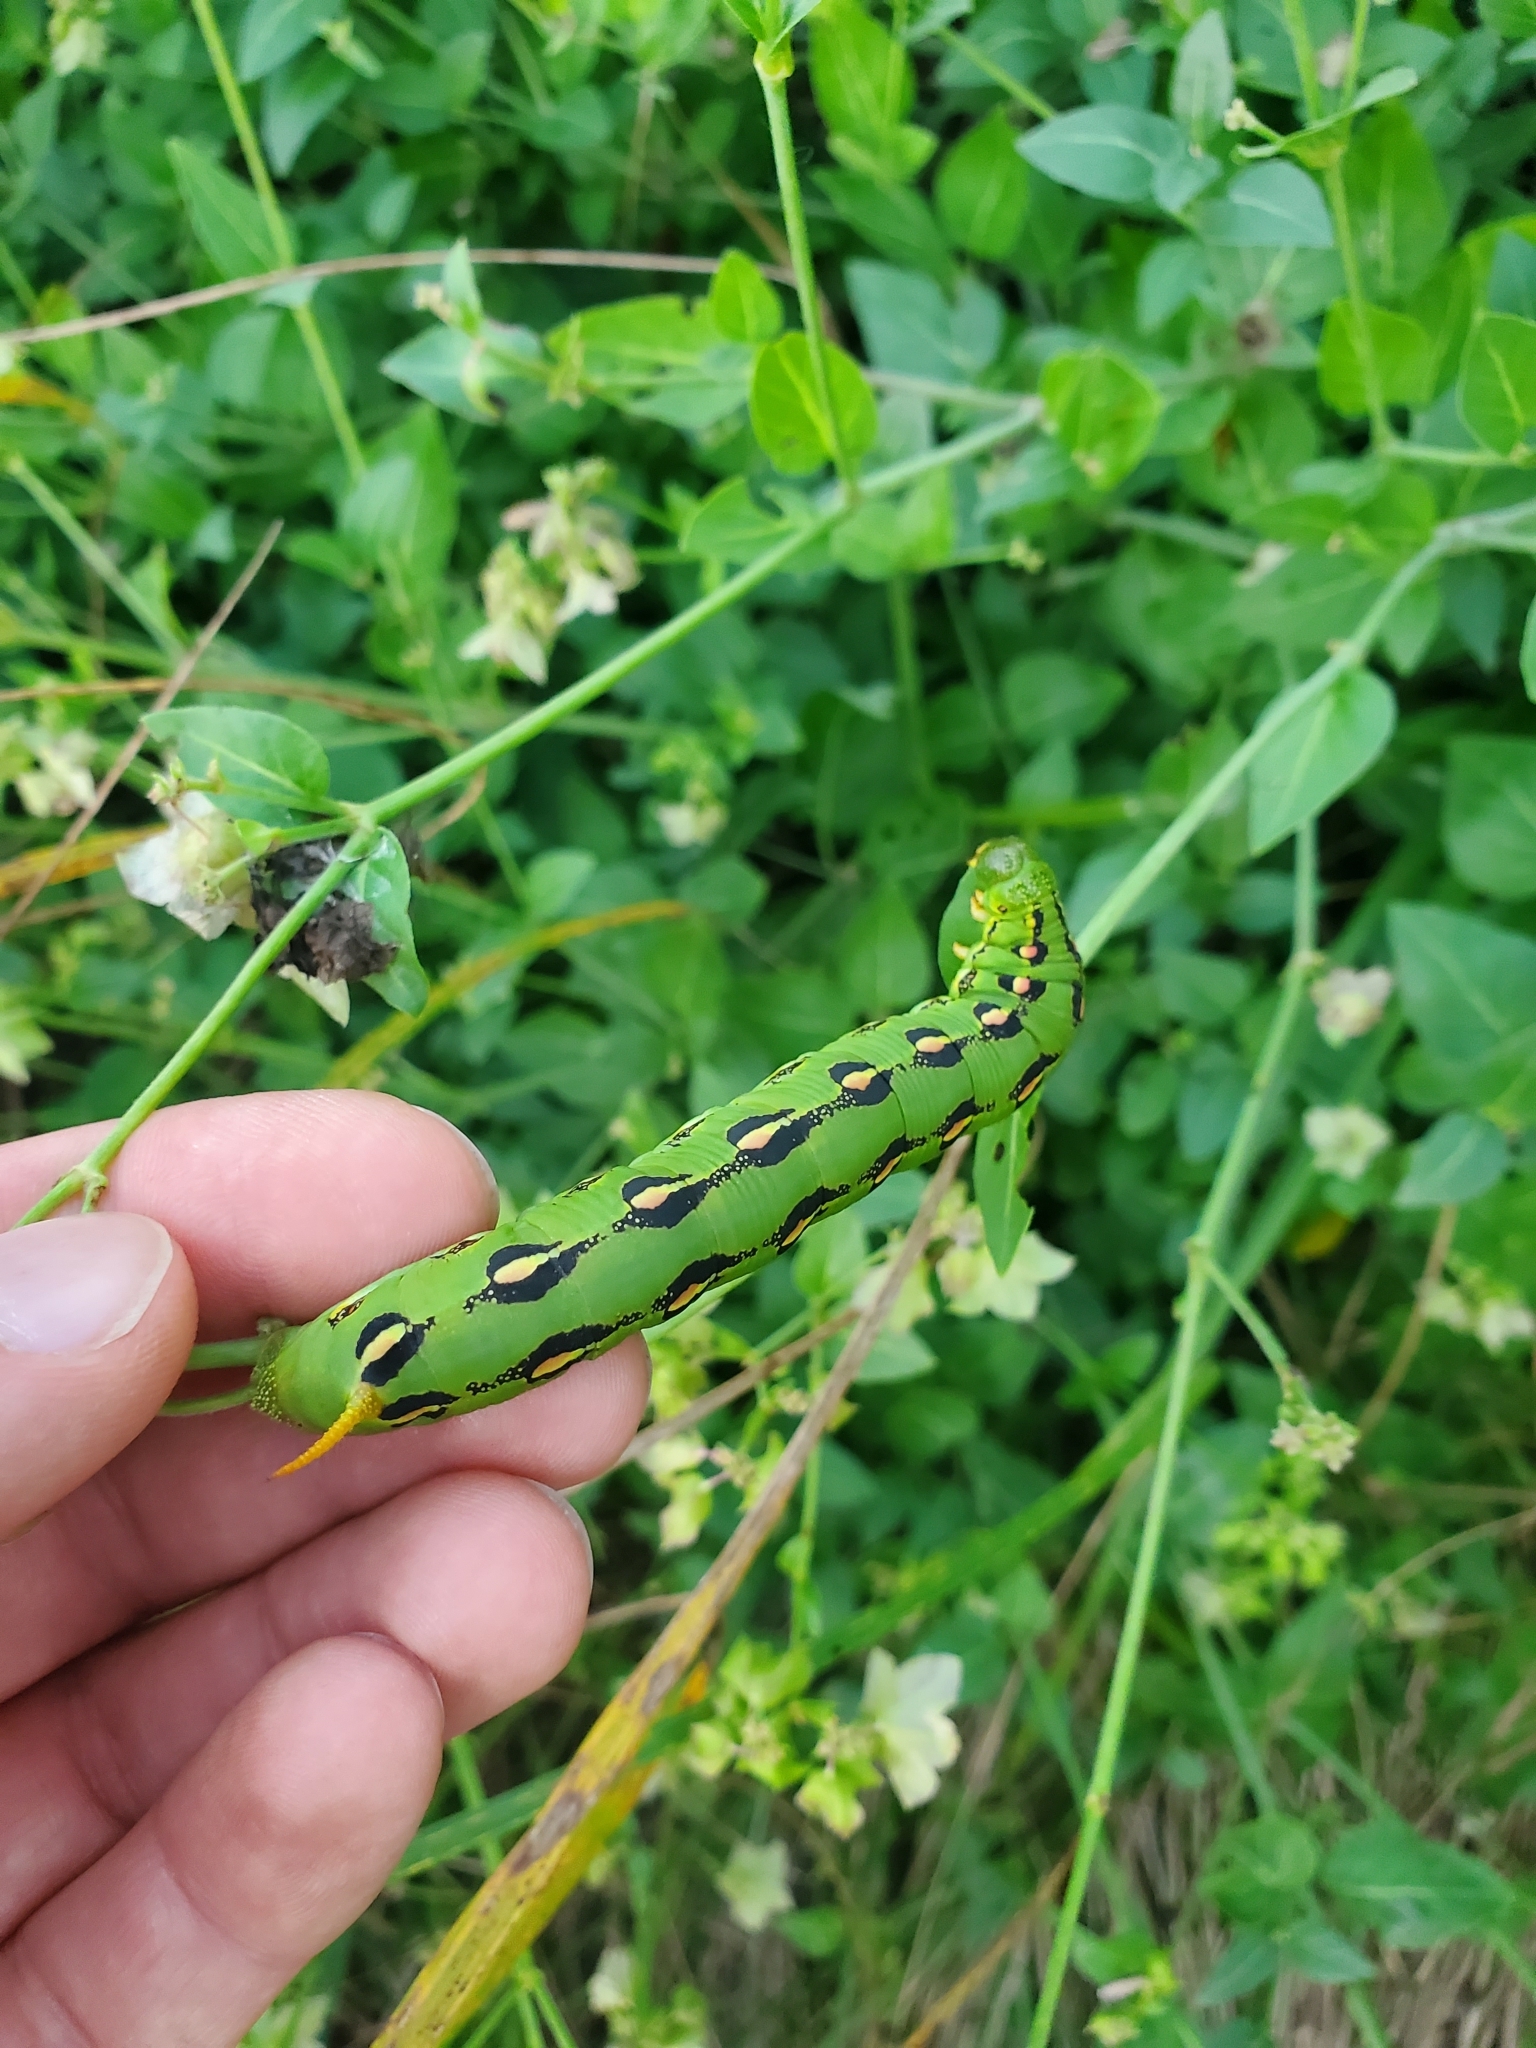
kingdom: Animalia
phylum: Arthropoda
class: Insecta
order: Lepidoptera
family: Sphingidae
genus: Hyles
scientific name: Hyles lineata
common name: White-lined sphinx
